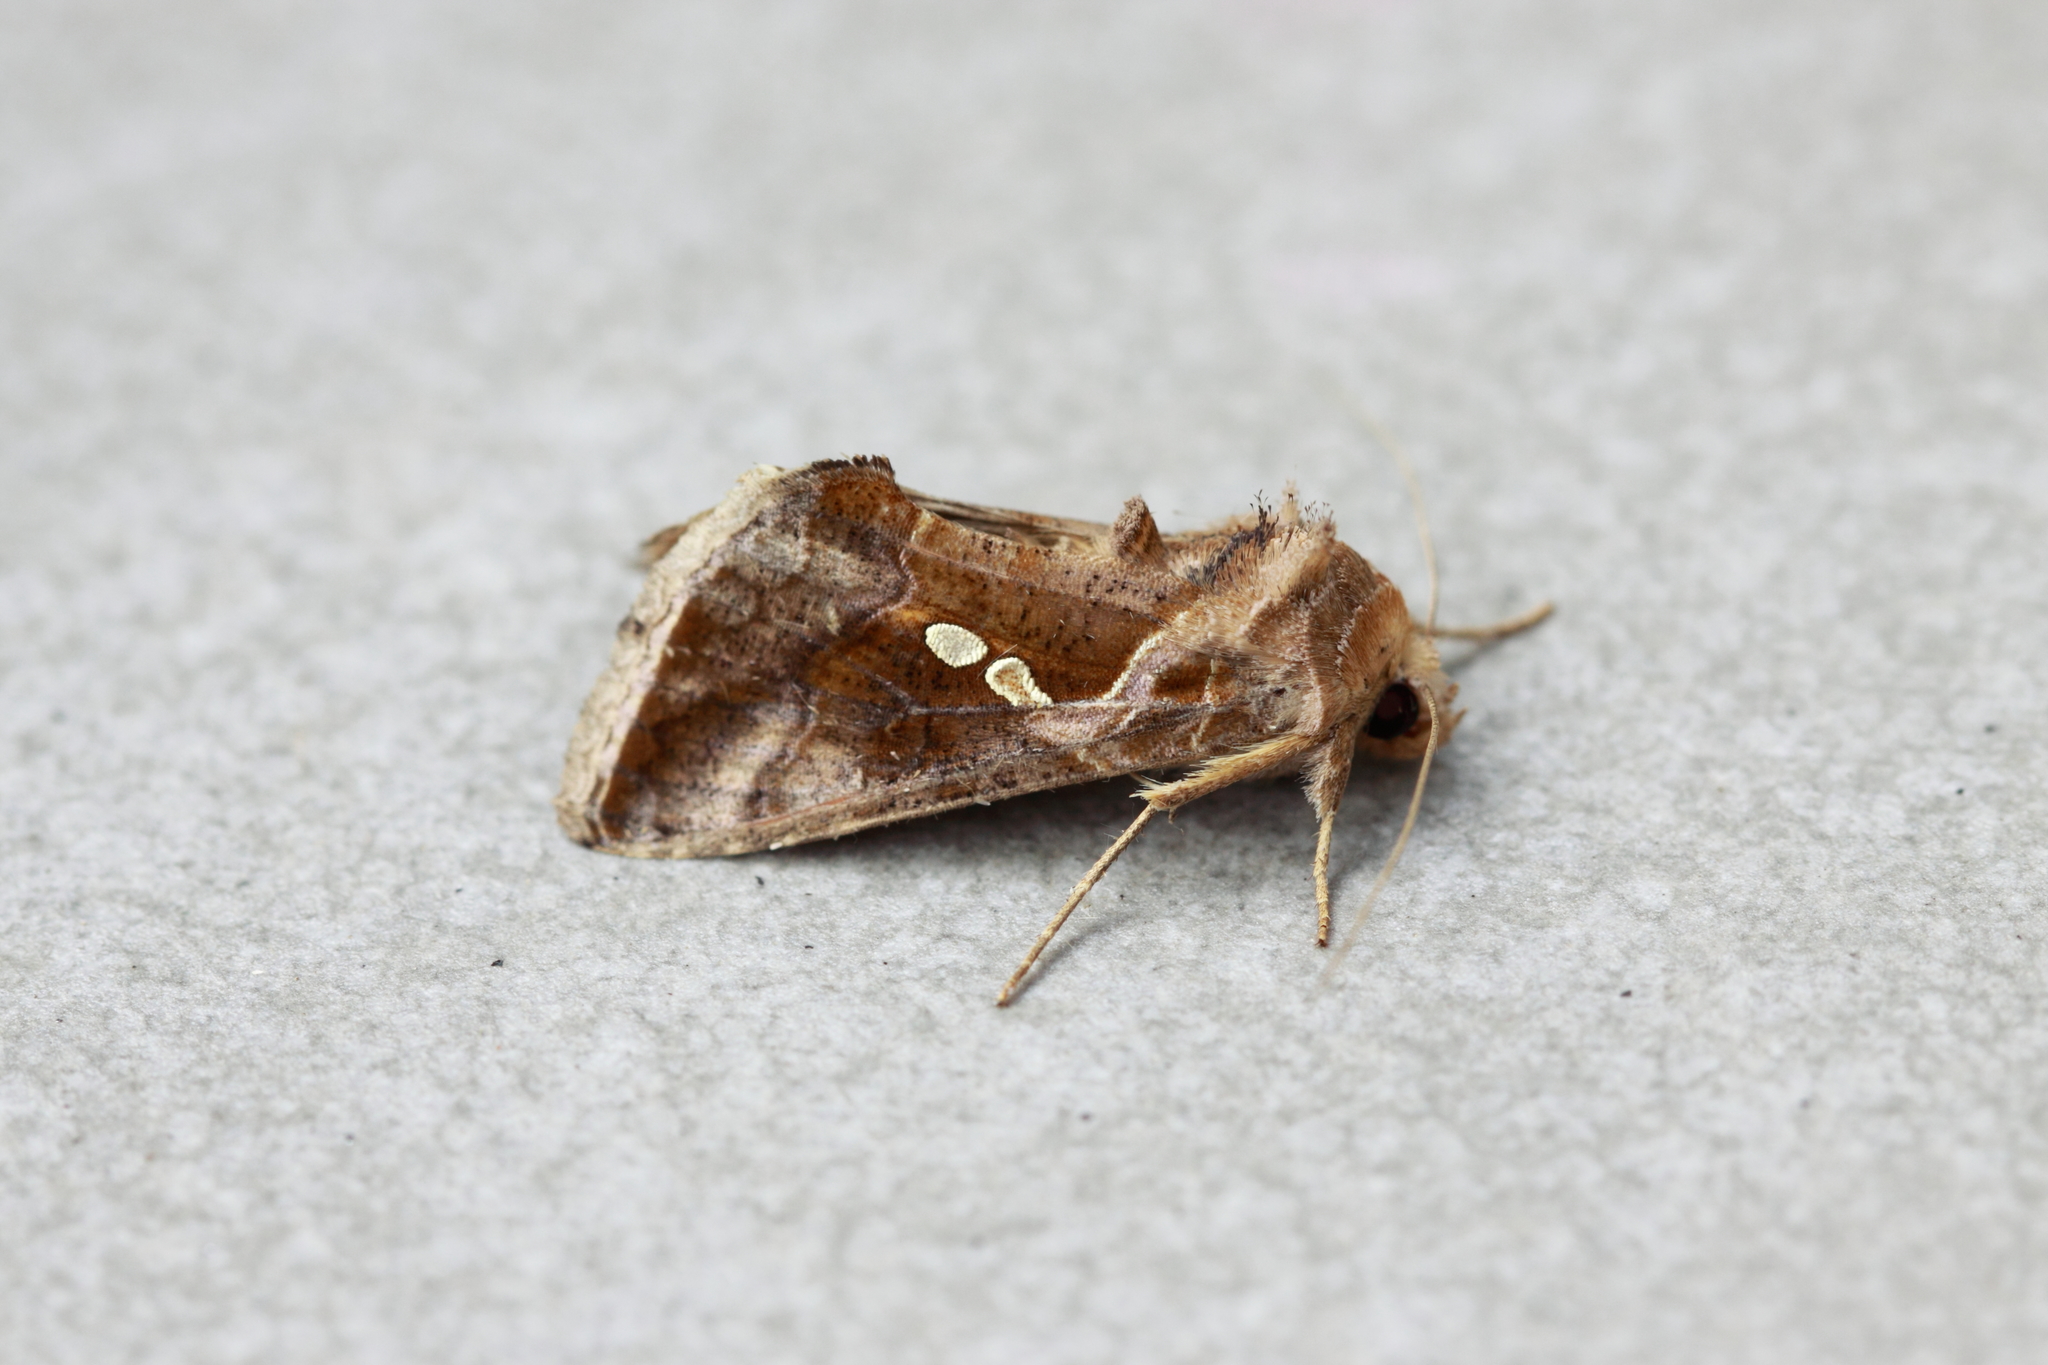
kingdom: Animalia
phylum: Arthropoda
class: Insecta
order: Lepidoptera
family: Noctuidae
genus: Chrysodeixis
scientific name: Chrysodeixis eriosoma
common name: Green garden looper
